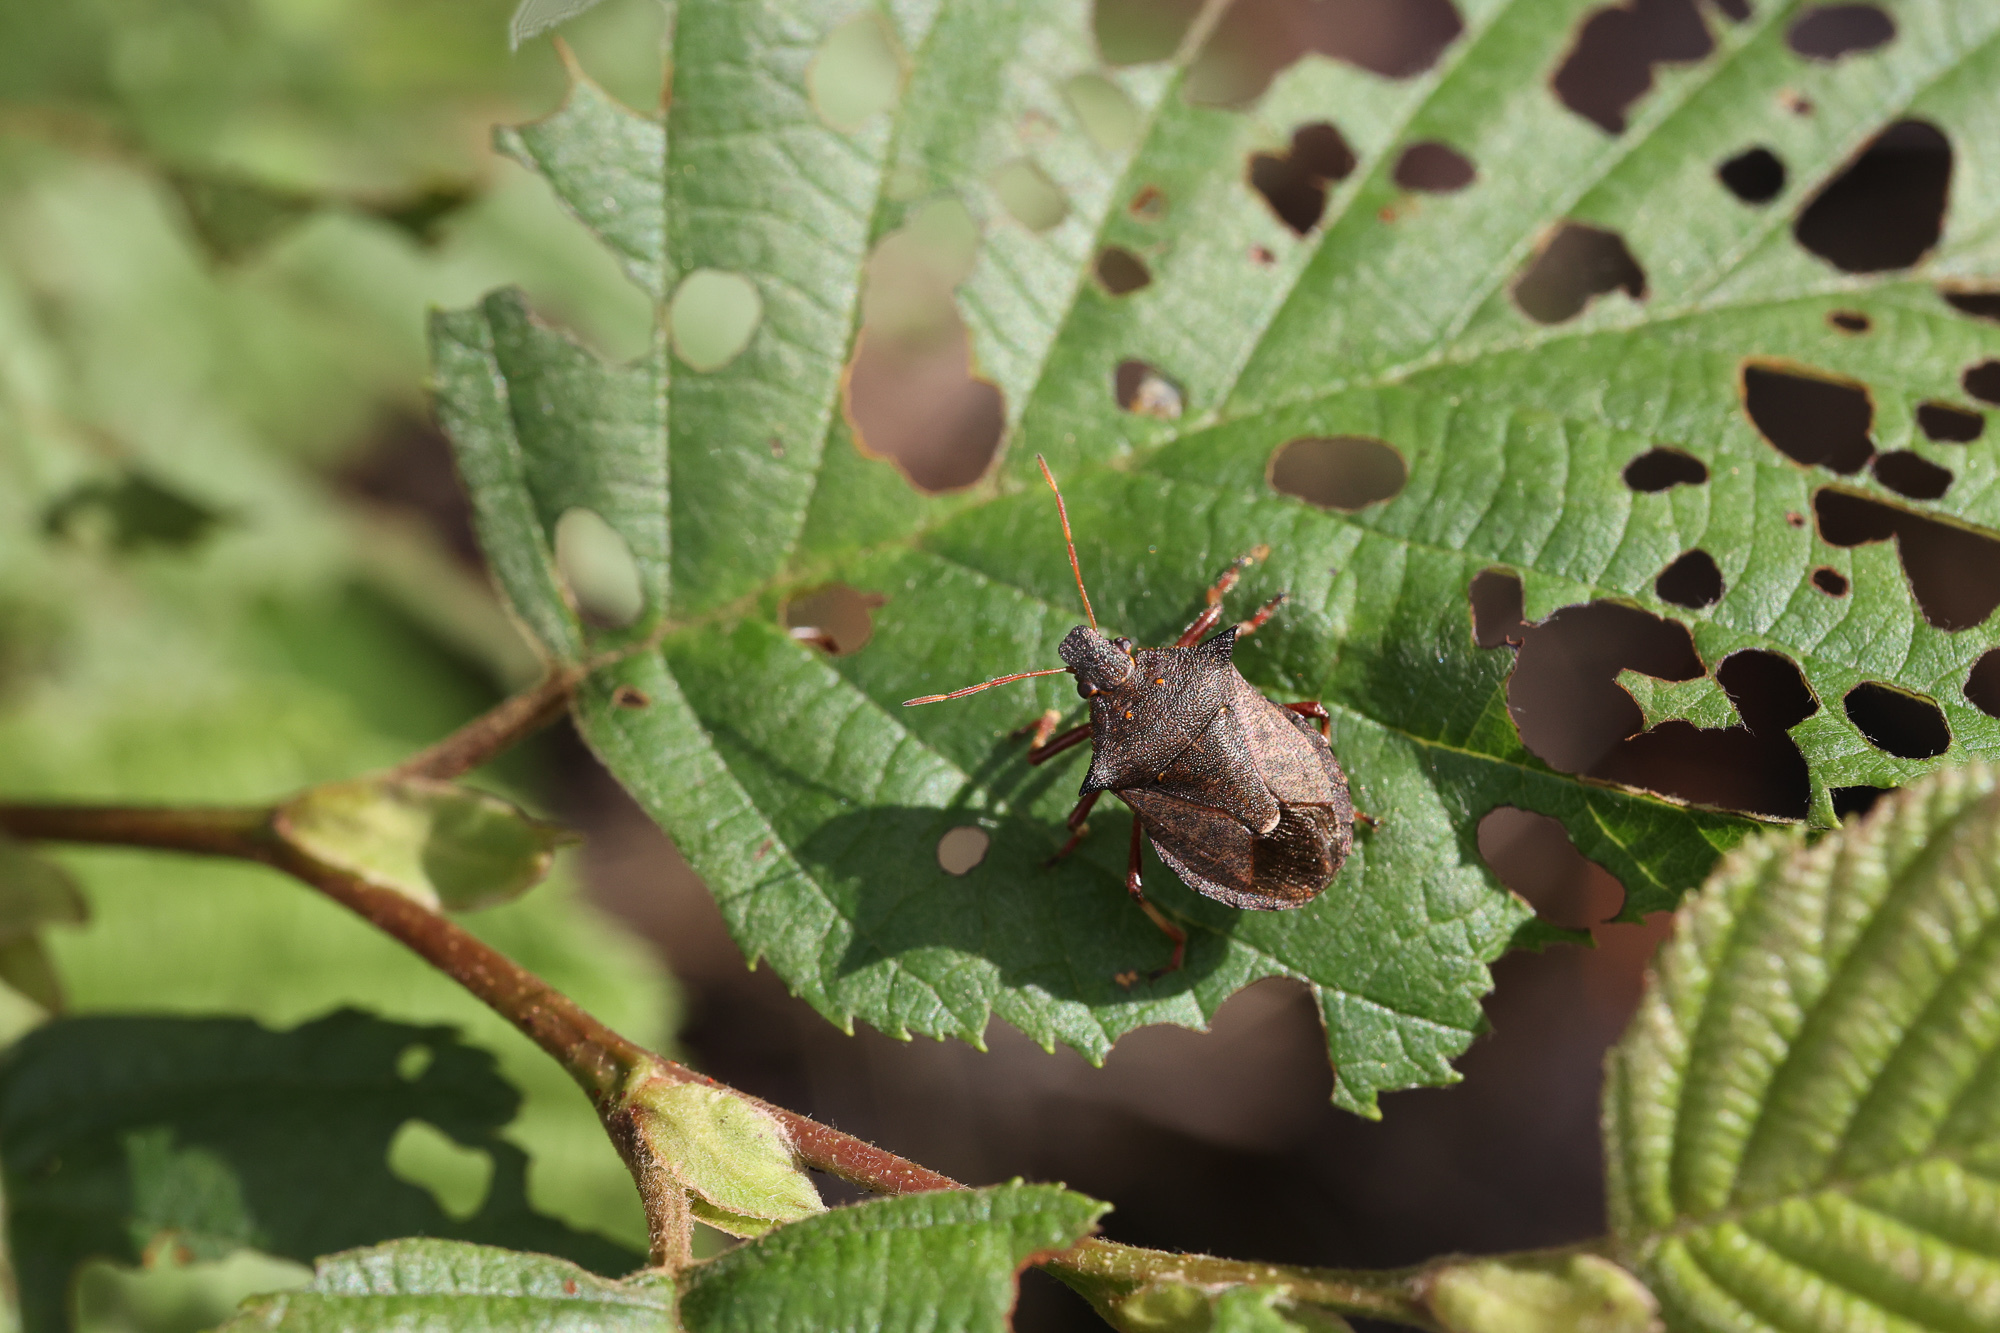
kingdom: Animalia
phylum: Arthropoda
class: Insecta
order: Hemiptera
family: Pentatomidae
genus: Picromerus
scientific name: Picromerus bidens
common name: Spiked shieldbug
